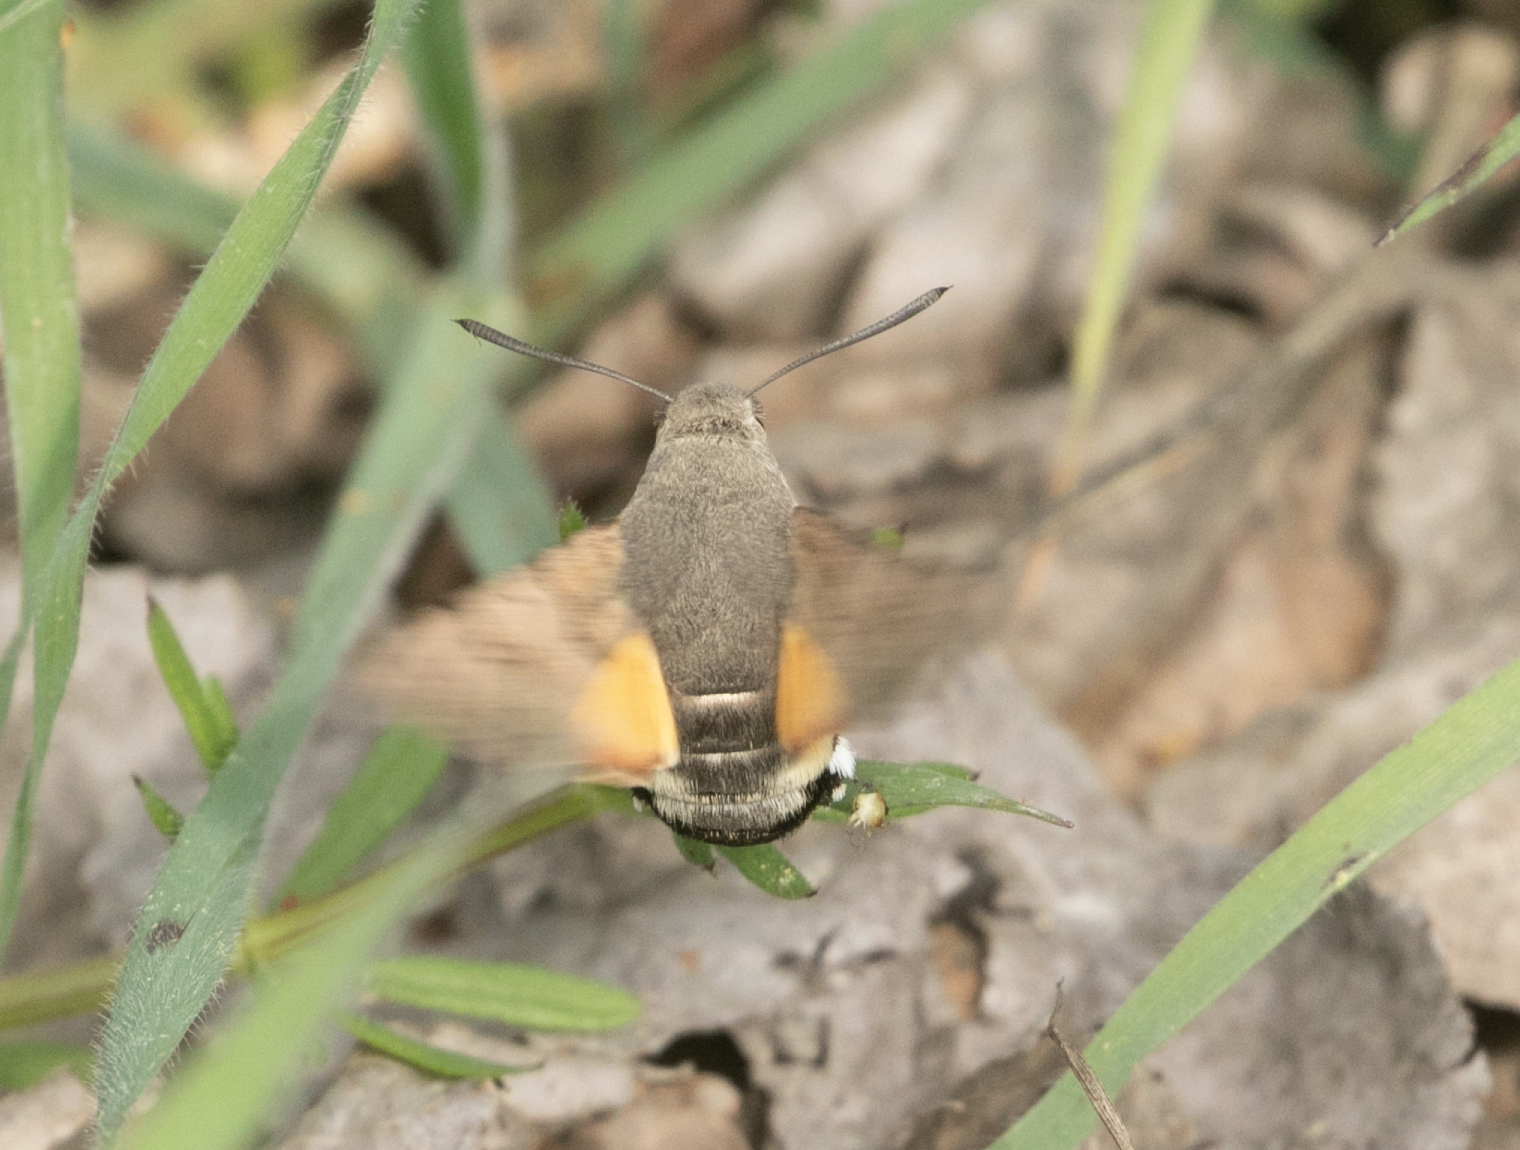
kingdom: Animalia
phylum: Arthropoda
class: Insecta
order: Lepidoptera
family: Sphingidae
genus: Macroglossum
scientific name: Macroglossum stellatarum
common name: Humming-bird hawk-moth
